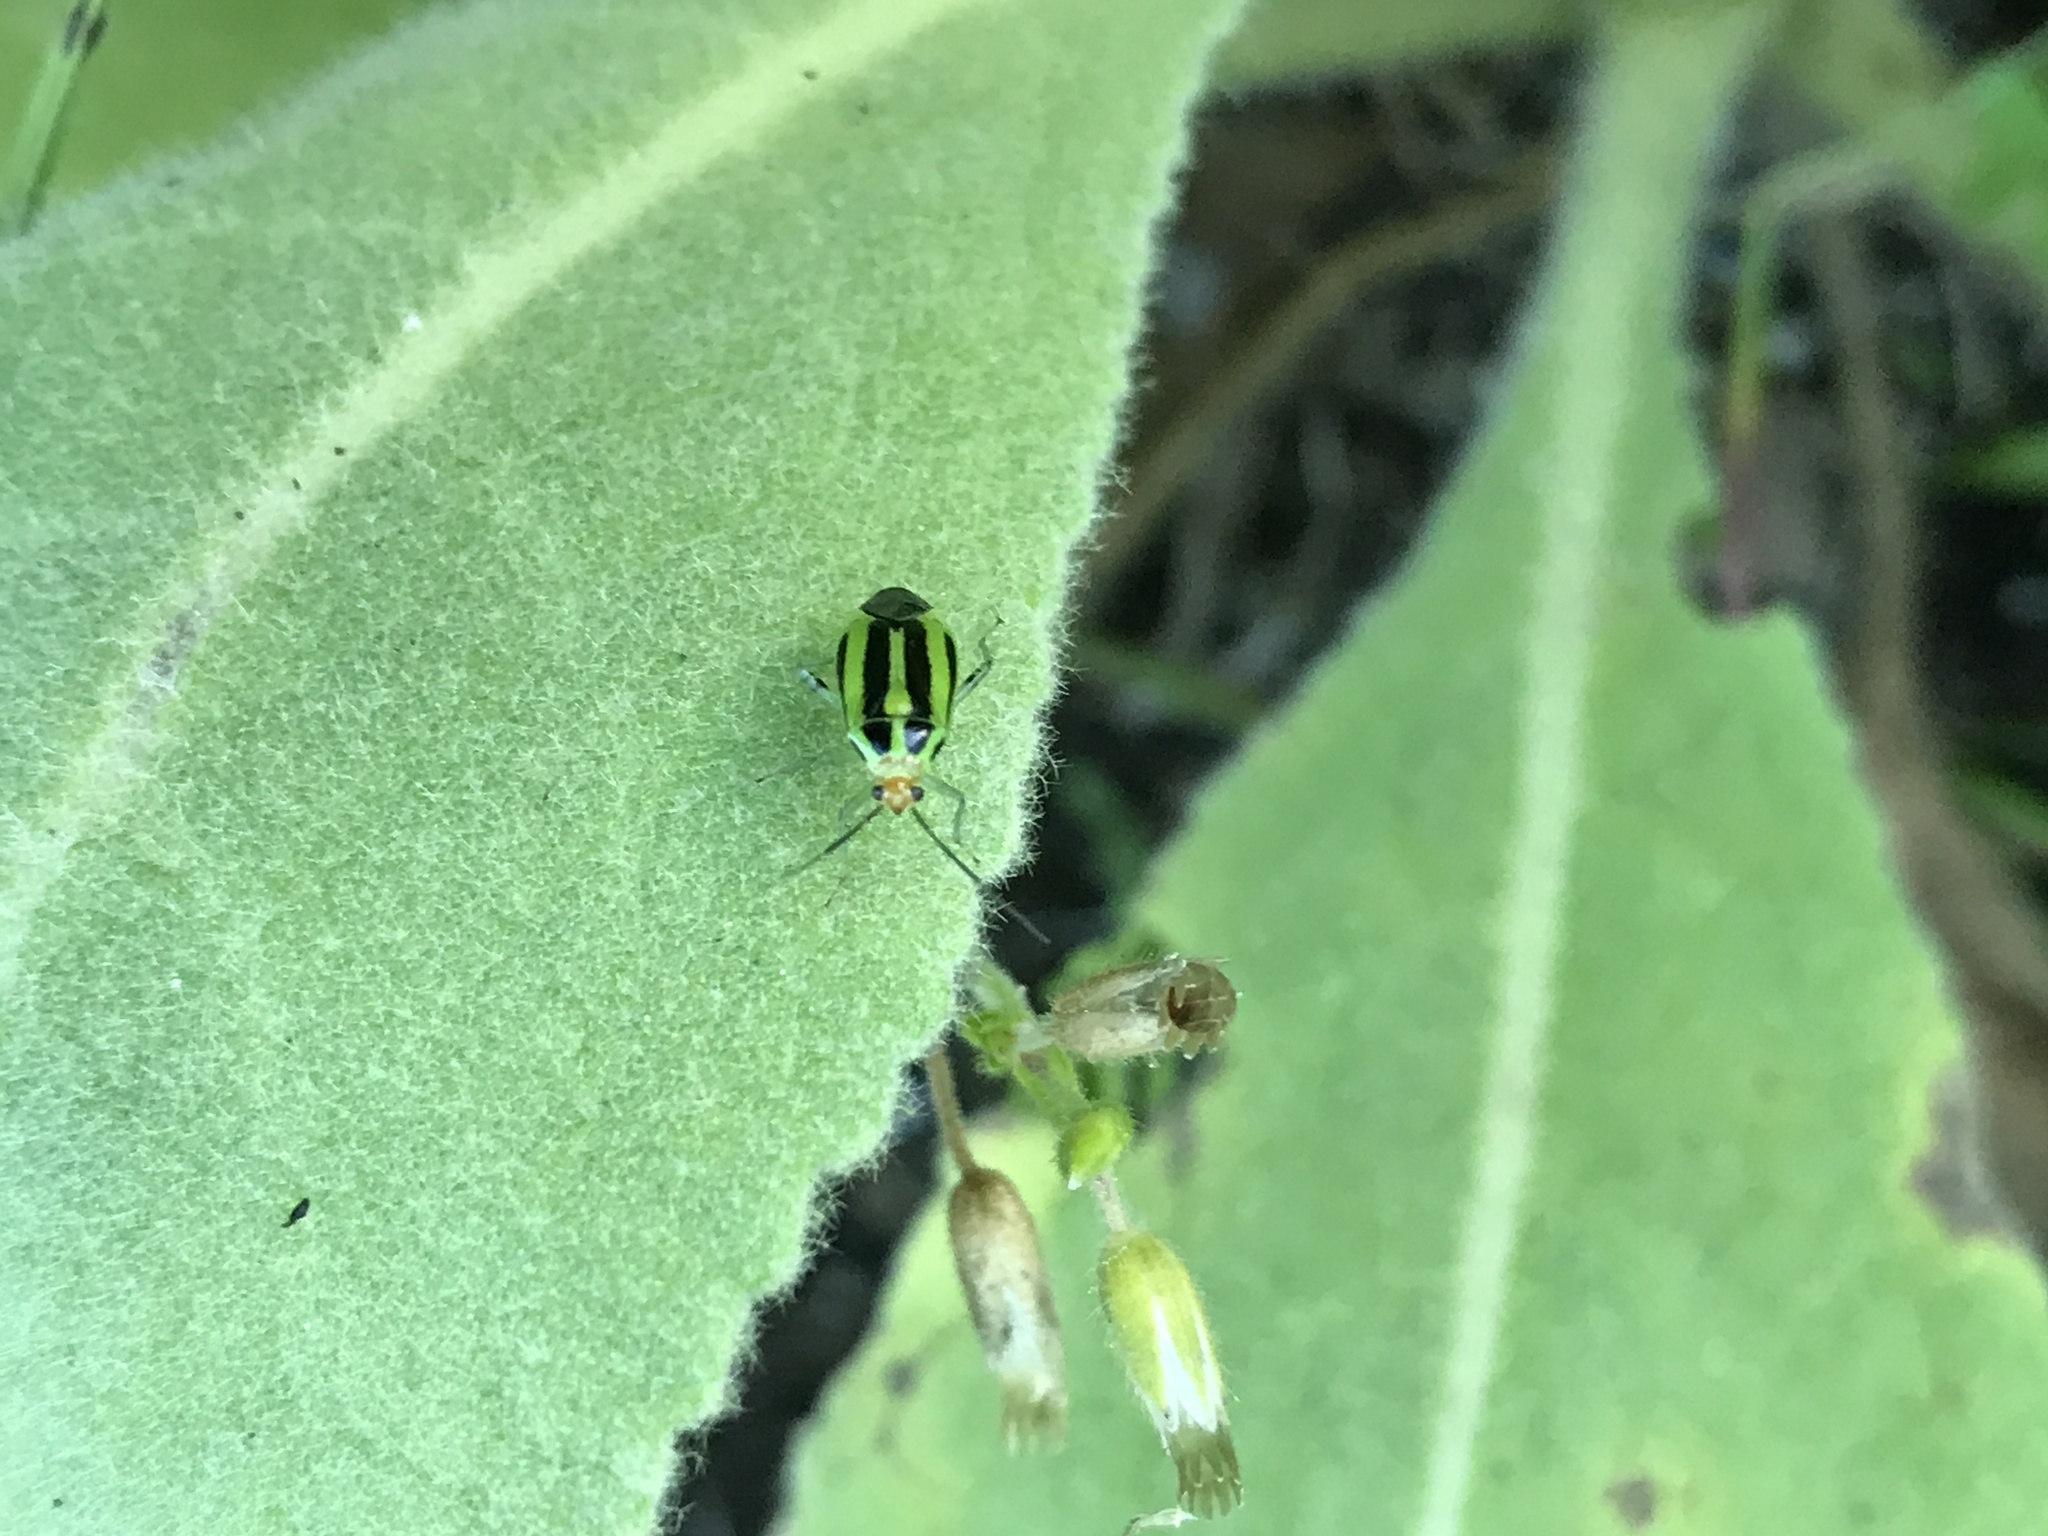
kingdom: Animalia
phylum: Arthropoda
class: Insecta
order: Hemiptera
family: Miridae
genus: Poecilocapsus
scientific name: Poecilocapsus lineatus
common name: Four-lined plant bug
